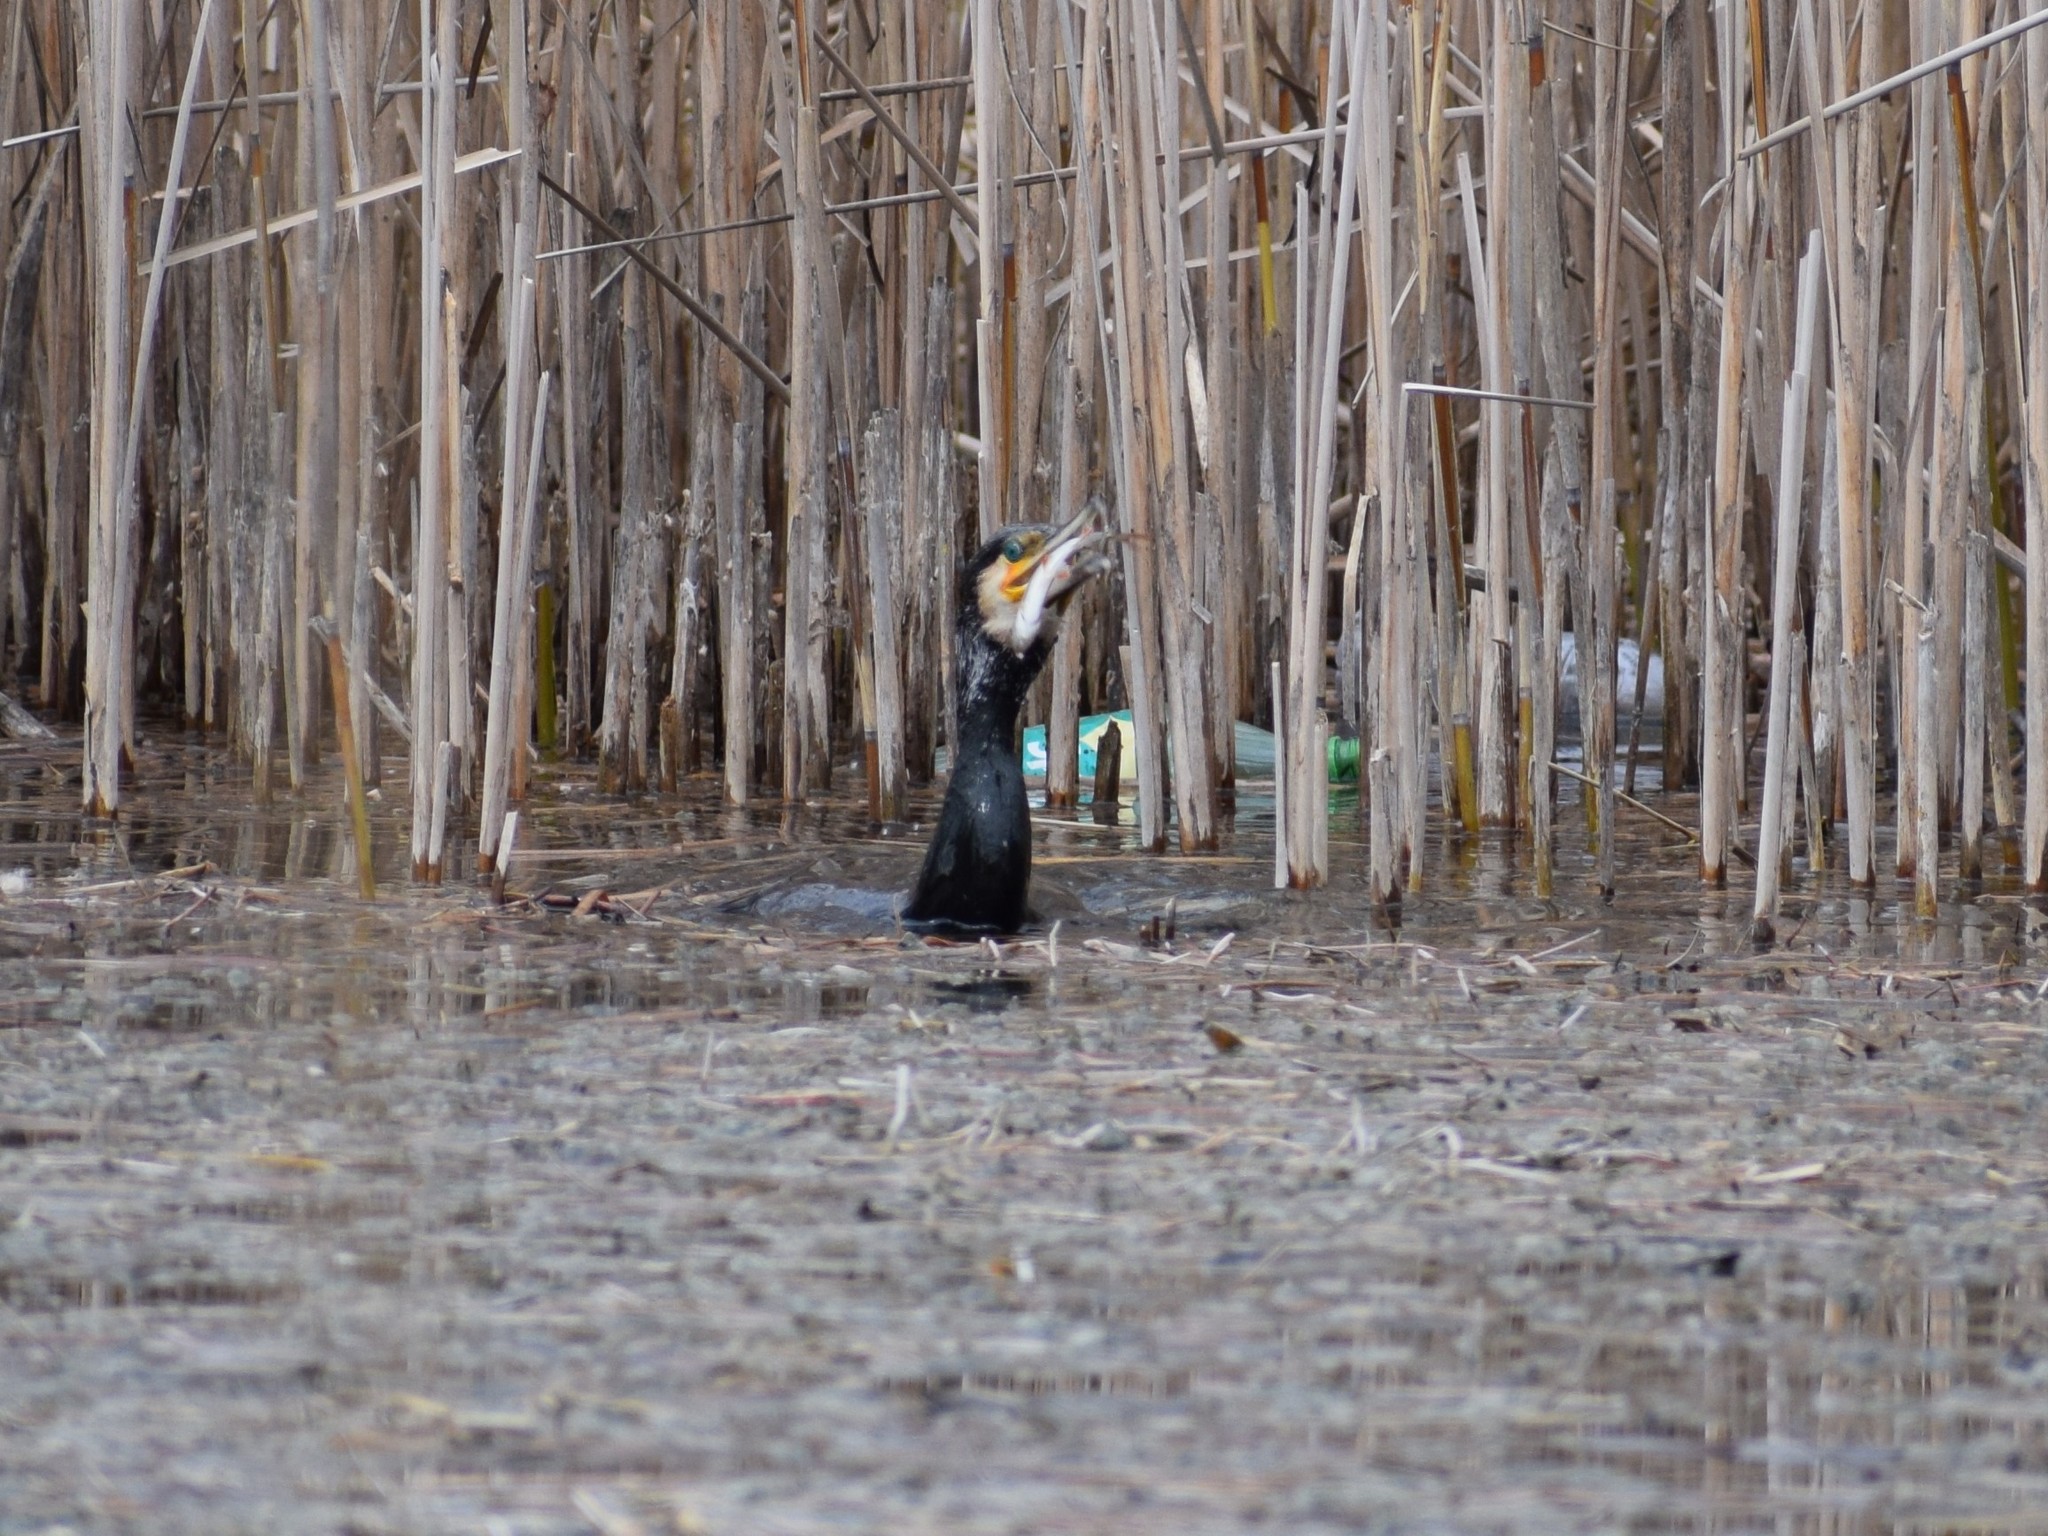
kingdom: Animalia
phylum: Chordata
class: Aves
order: Suliformes
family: Phalacrocoracidae
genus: Phalacrocorax
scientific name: Phalacrocorax carbo
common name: Great cormorant
